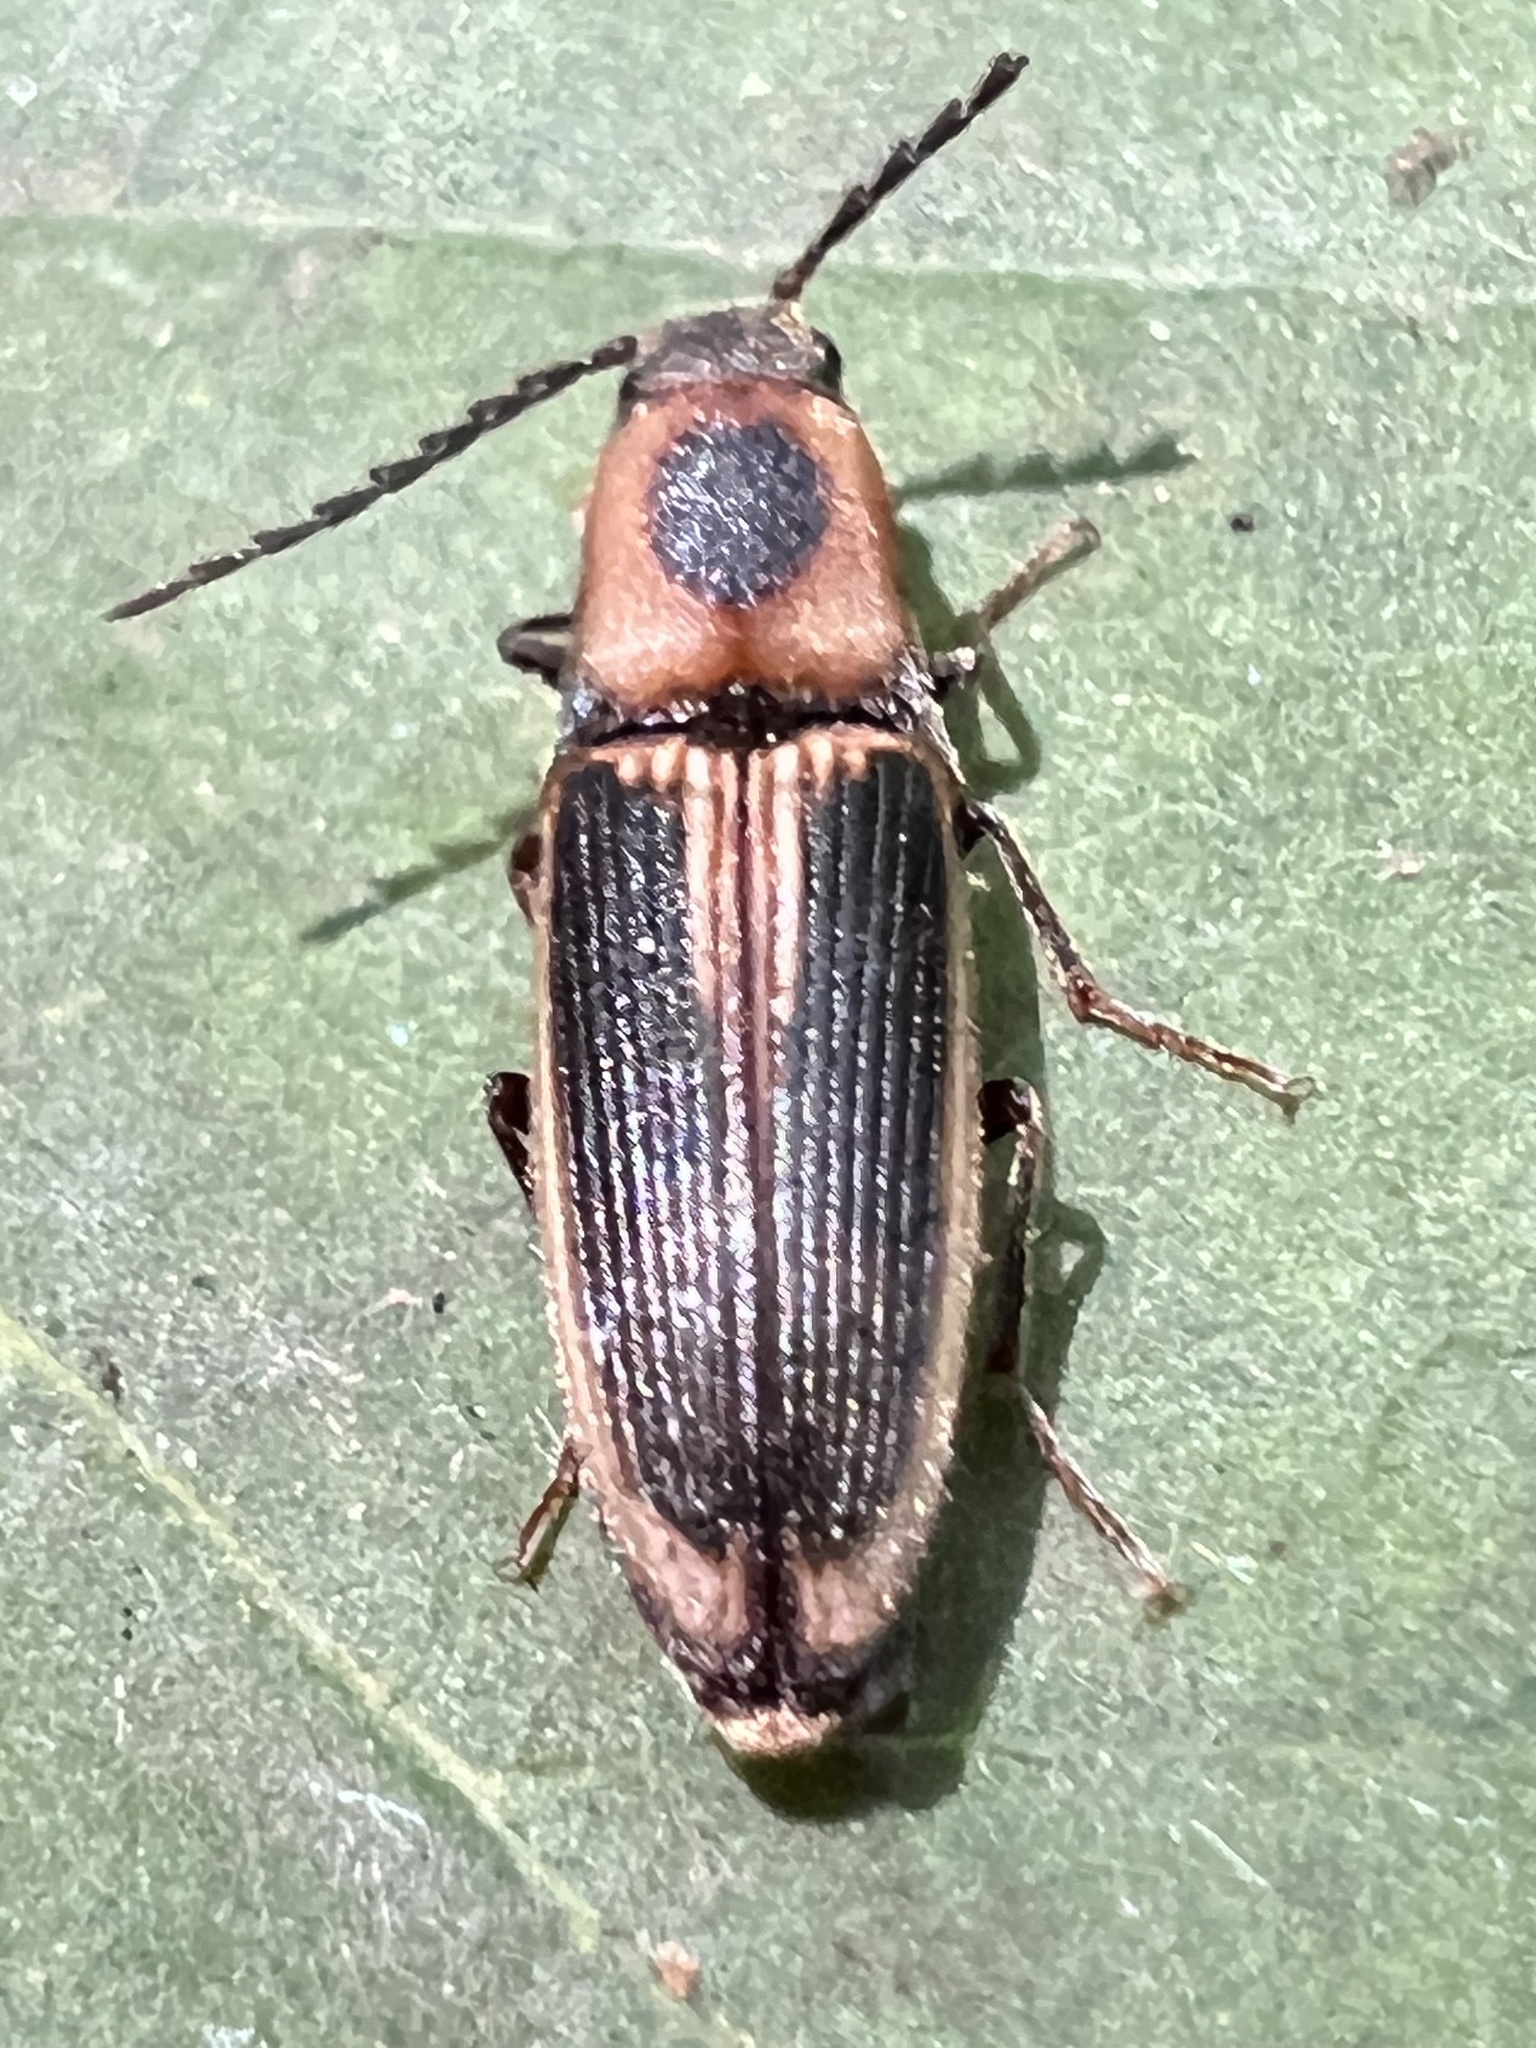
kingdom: Animalia
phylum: Arthropoda
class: Insecta
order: Coleoptera
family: Elateridae
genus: Megapenthes
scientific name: Megapenthes
